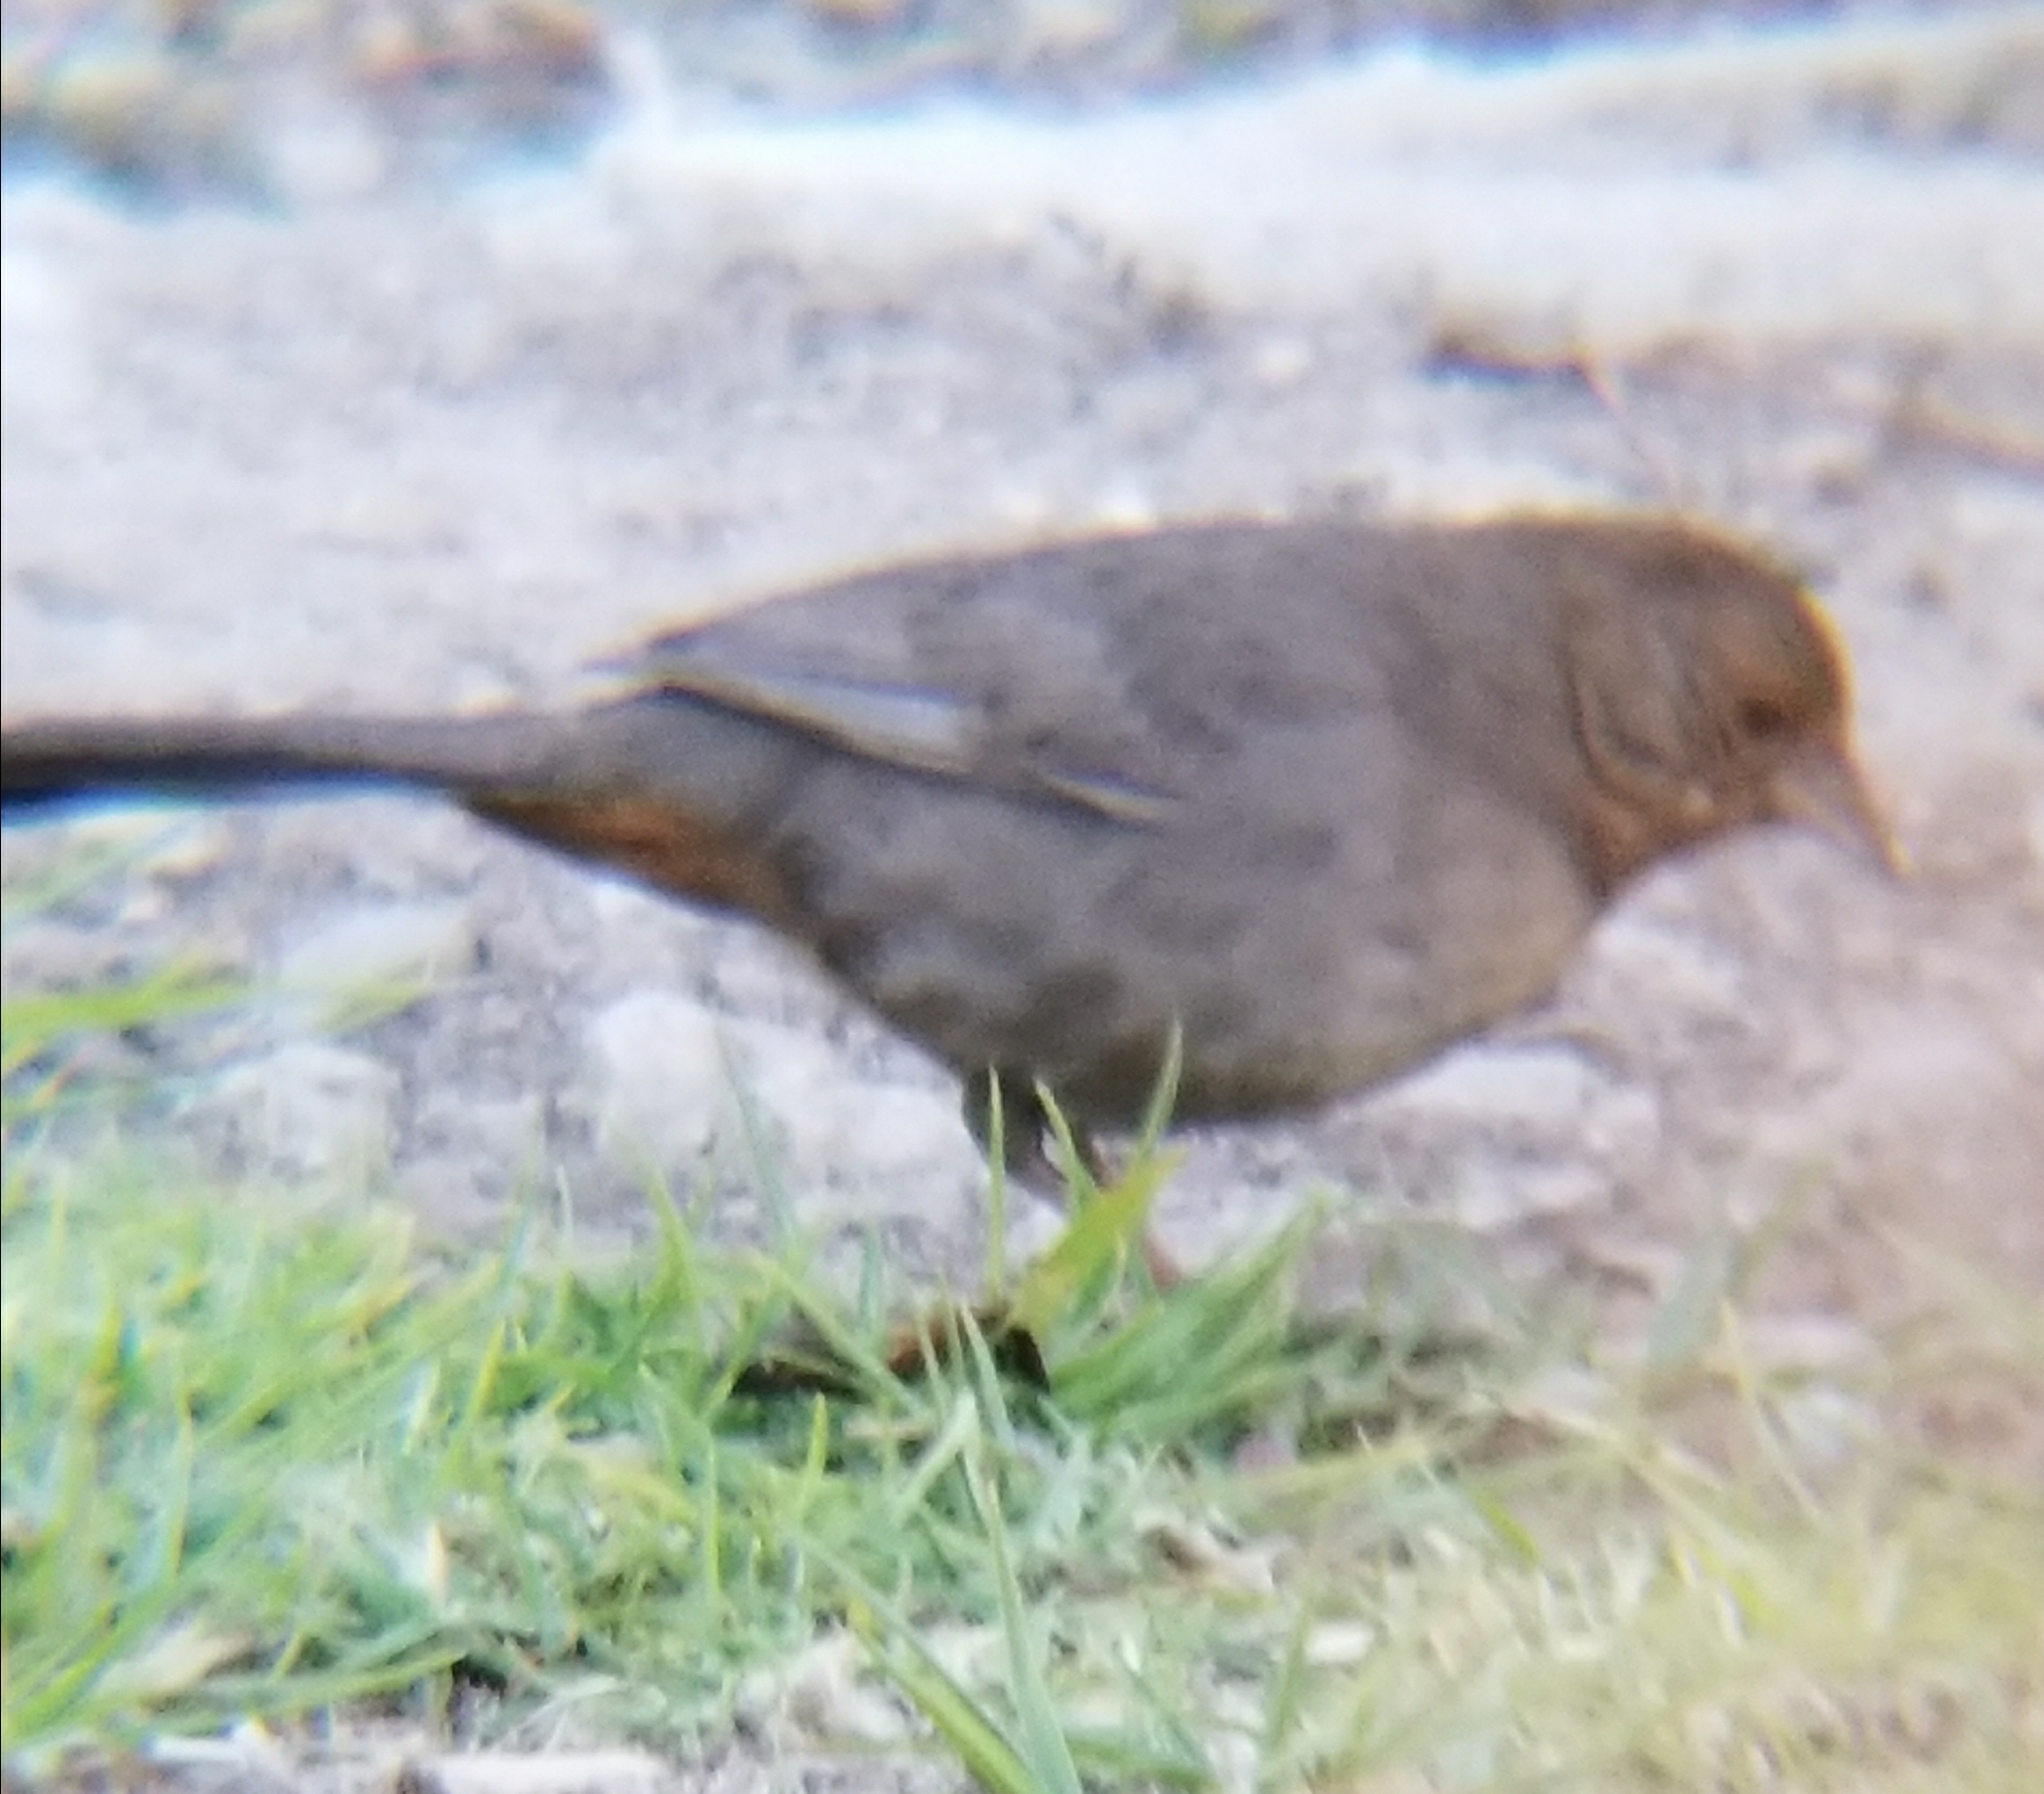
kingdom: Animalia
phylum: Chordata
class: Aves
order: Passeriformes
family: Passerellidae
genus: Melozone
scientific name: Melozone crissalis
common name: California towhee
